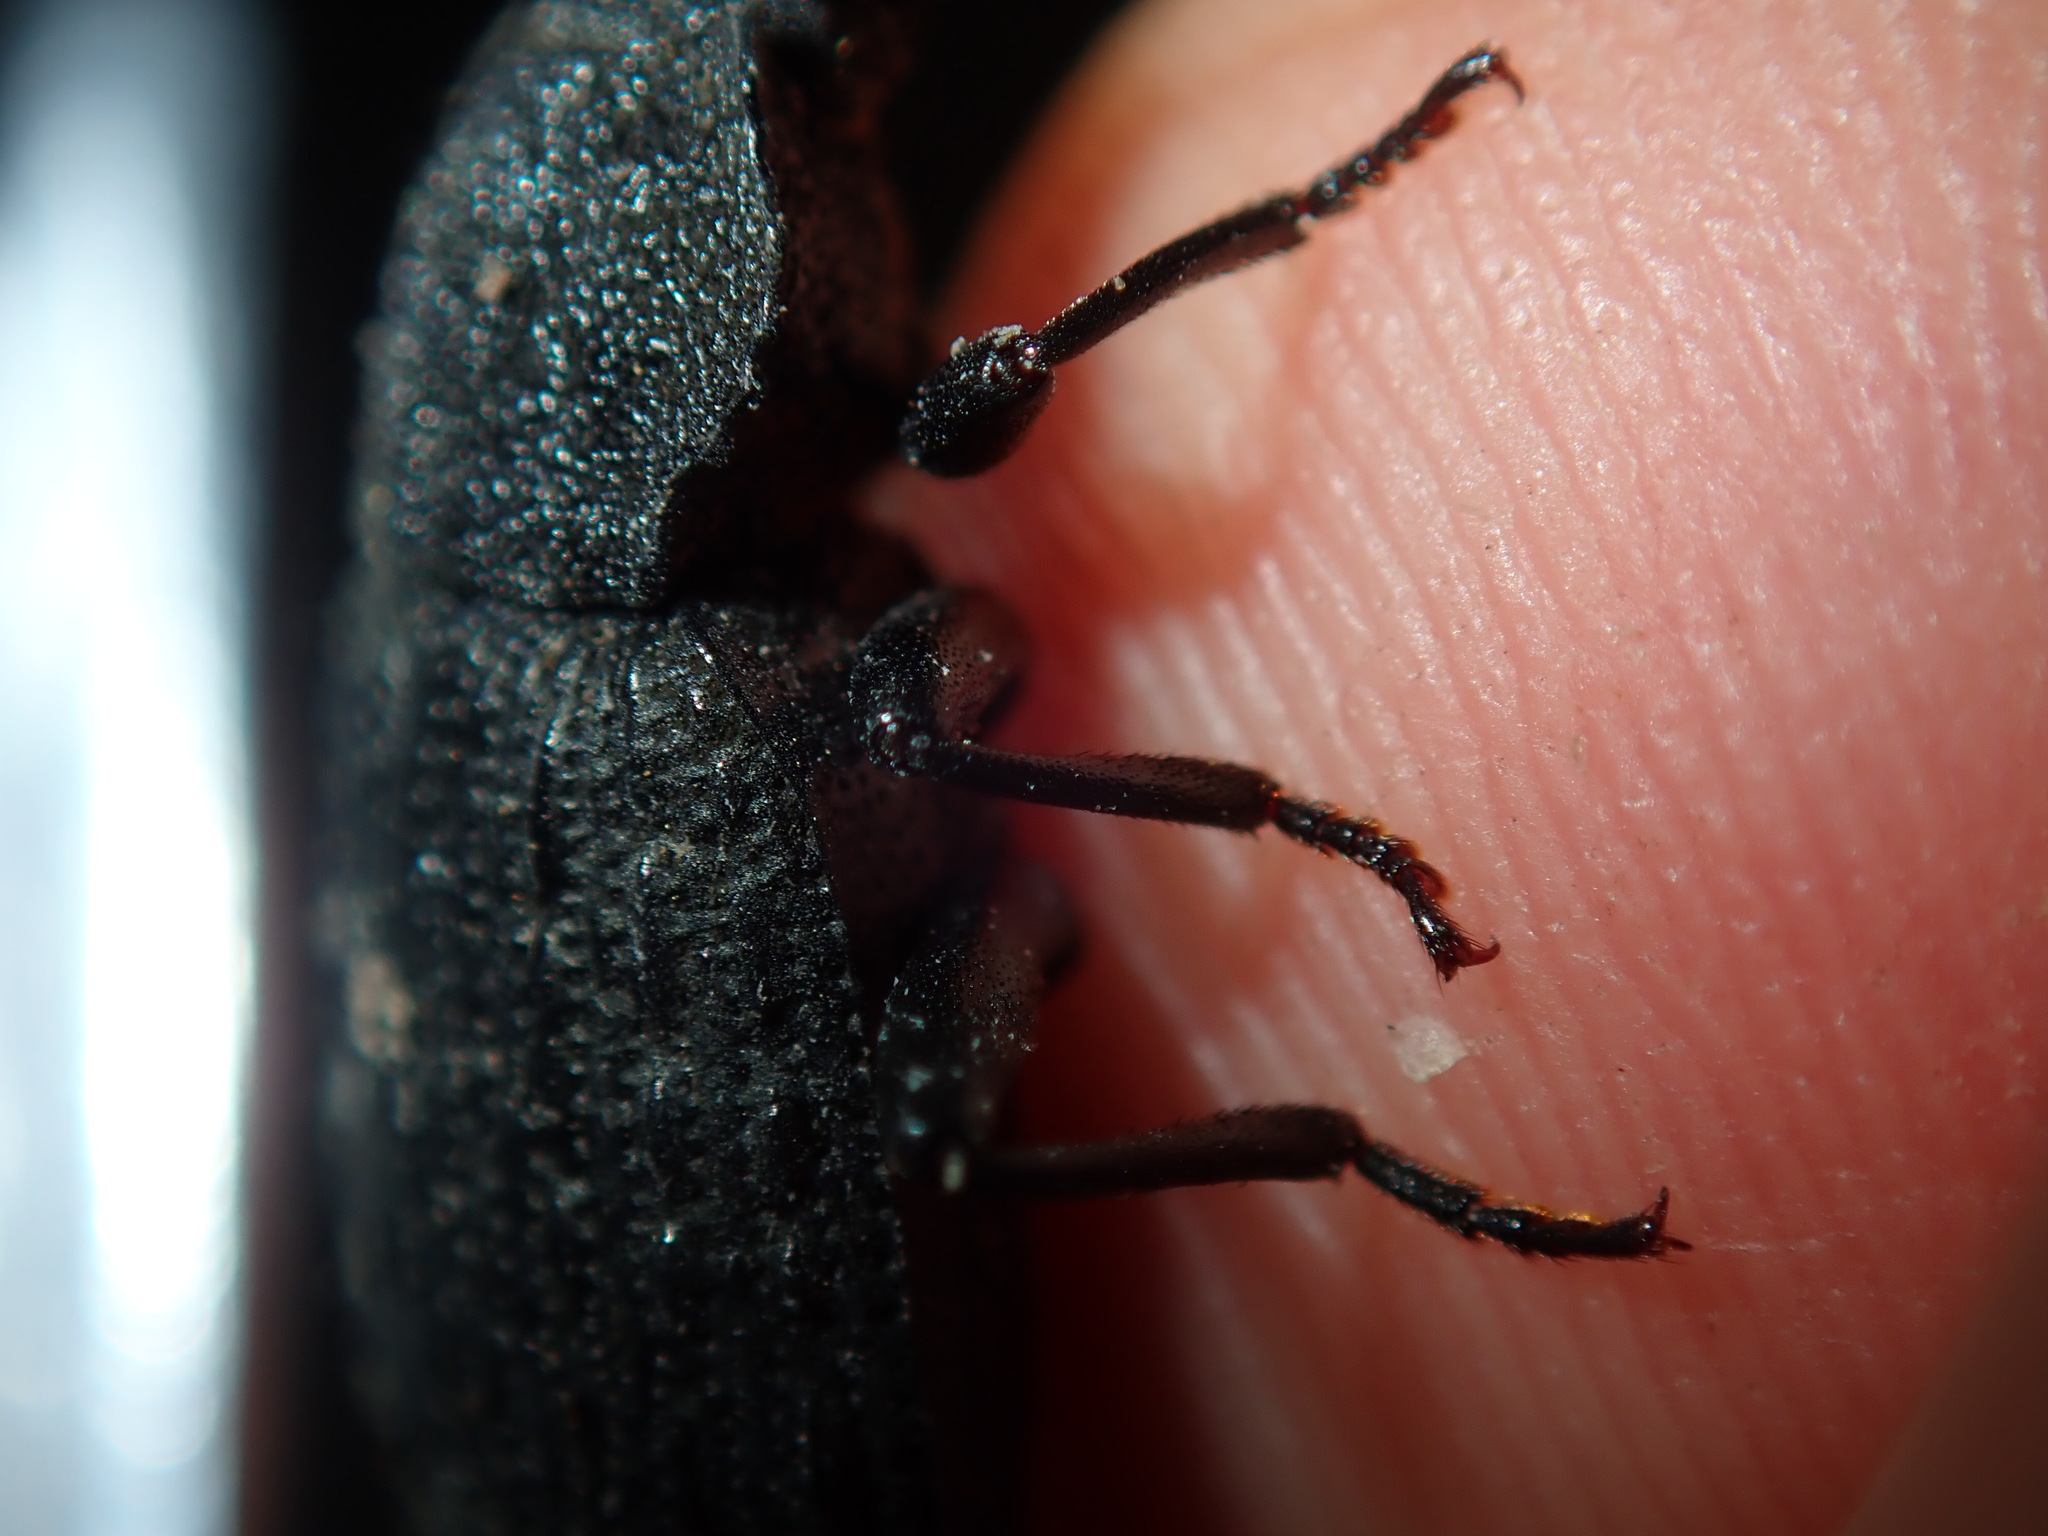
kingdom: Animalia
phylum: Arthropoda
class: Insecta
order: Coleoptera
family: Tenebrionidae
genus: Seirotrana
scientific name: Seirotrana
